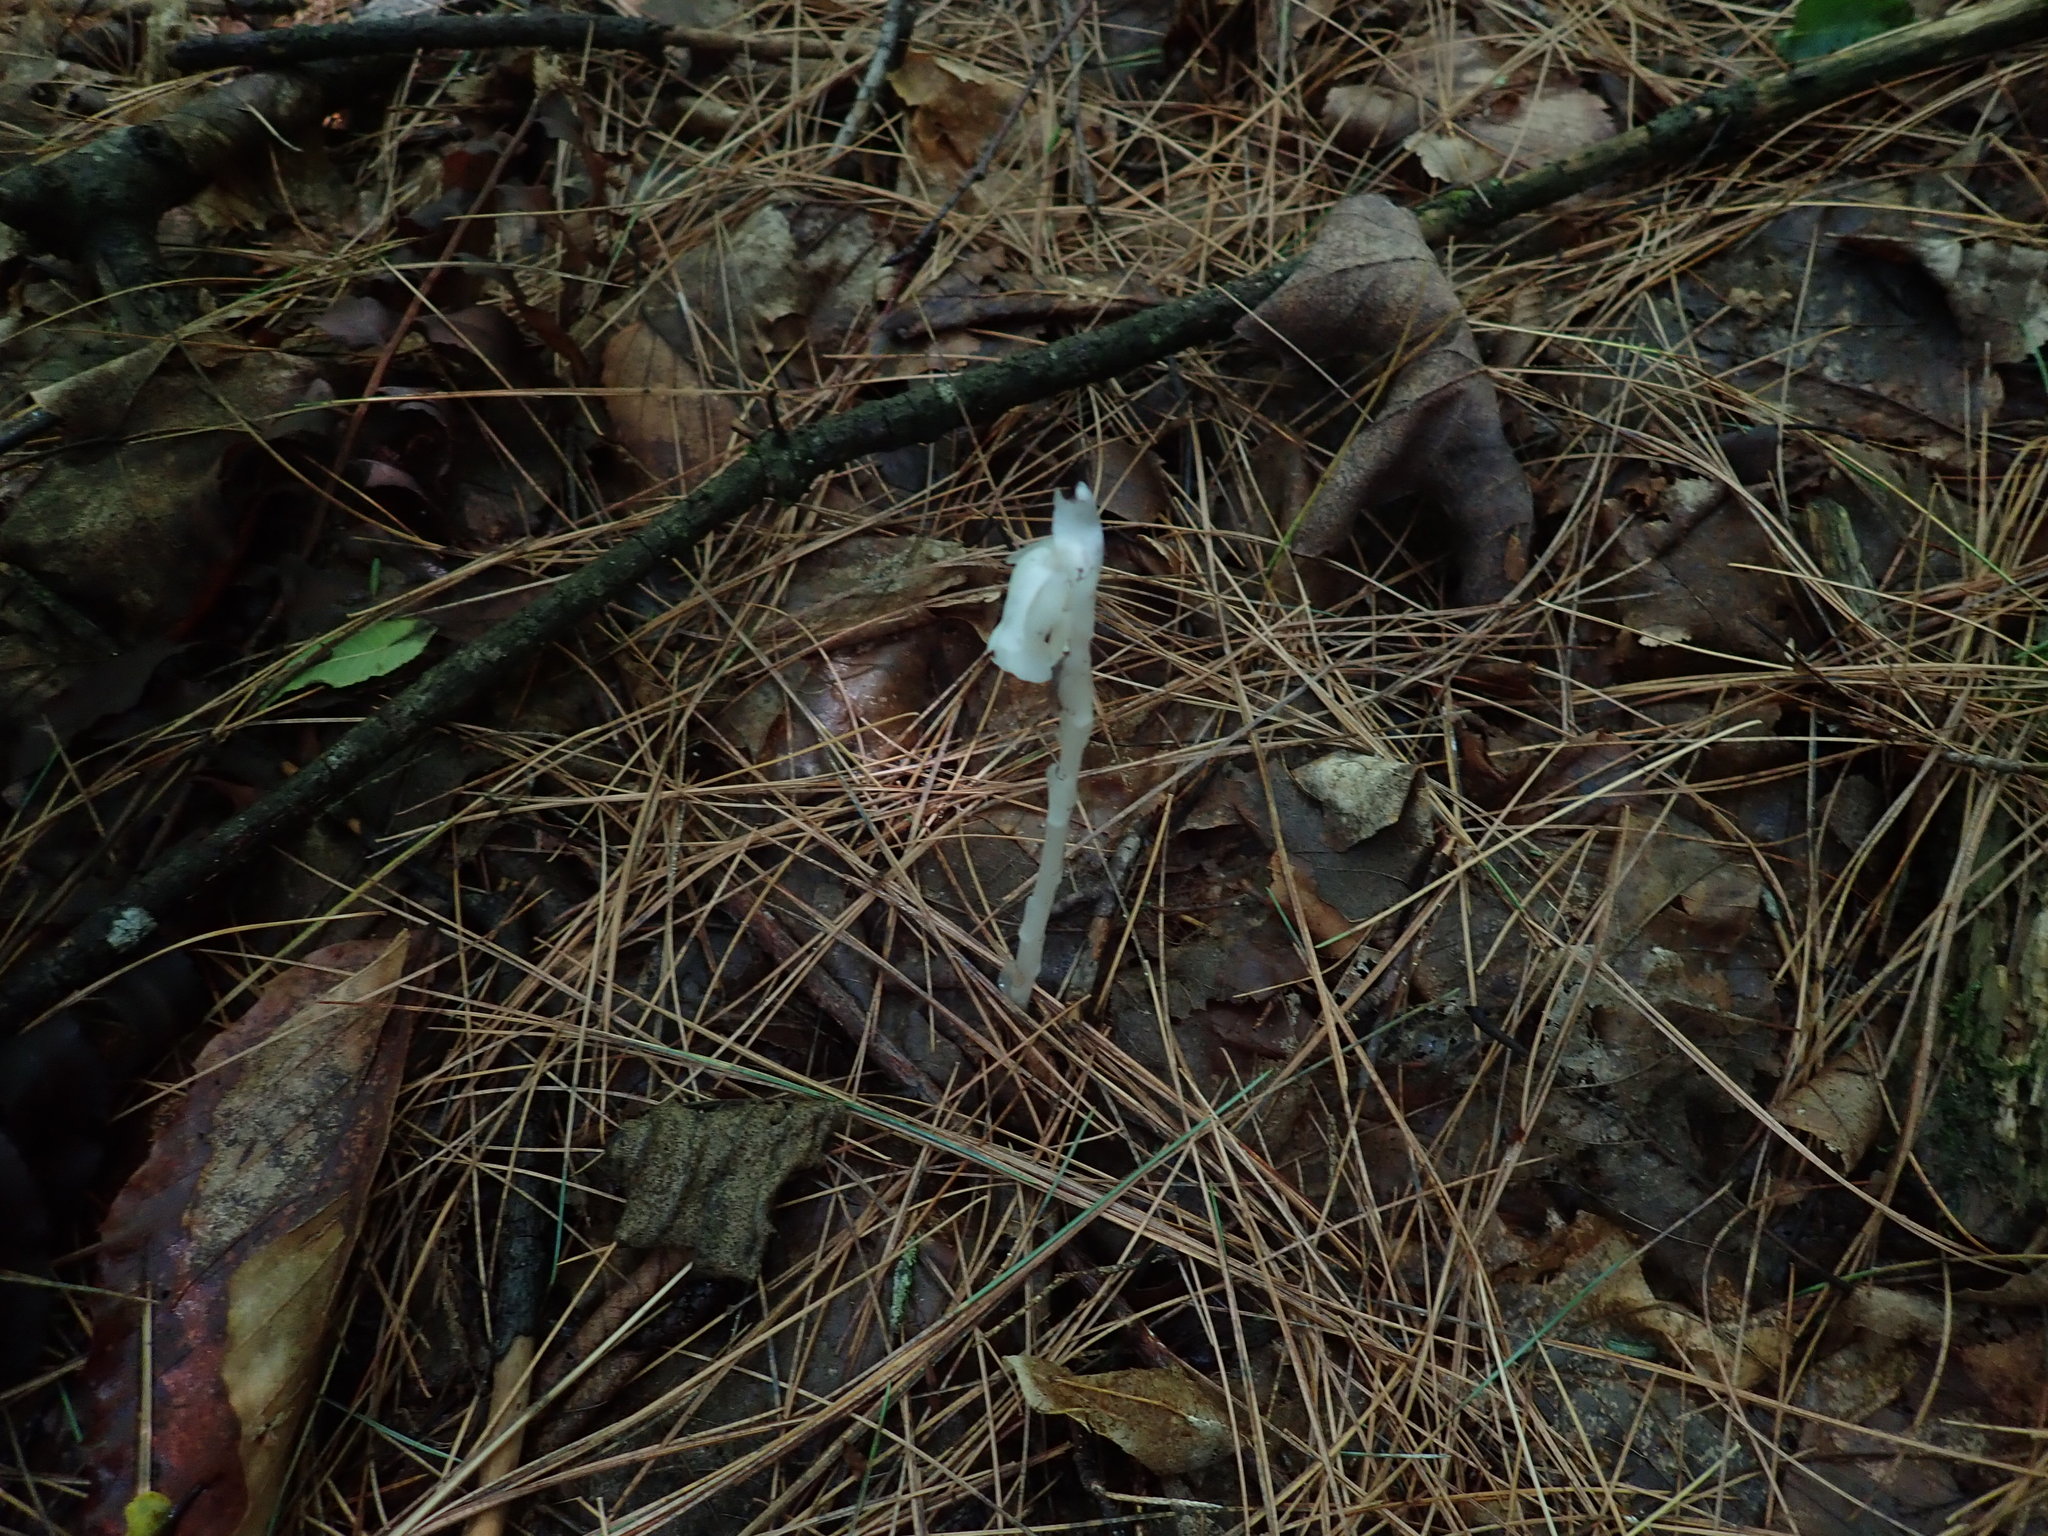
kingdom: Plantae
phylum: Tracheophyta
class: Magnoliopsida
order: Ericales
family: Ericaceae
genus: Monotropa
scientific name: Monotropa uniflora
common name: Convulsion root
